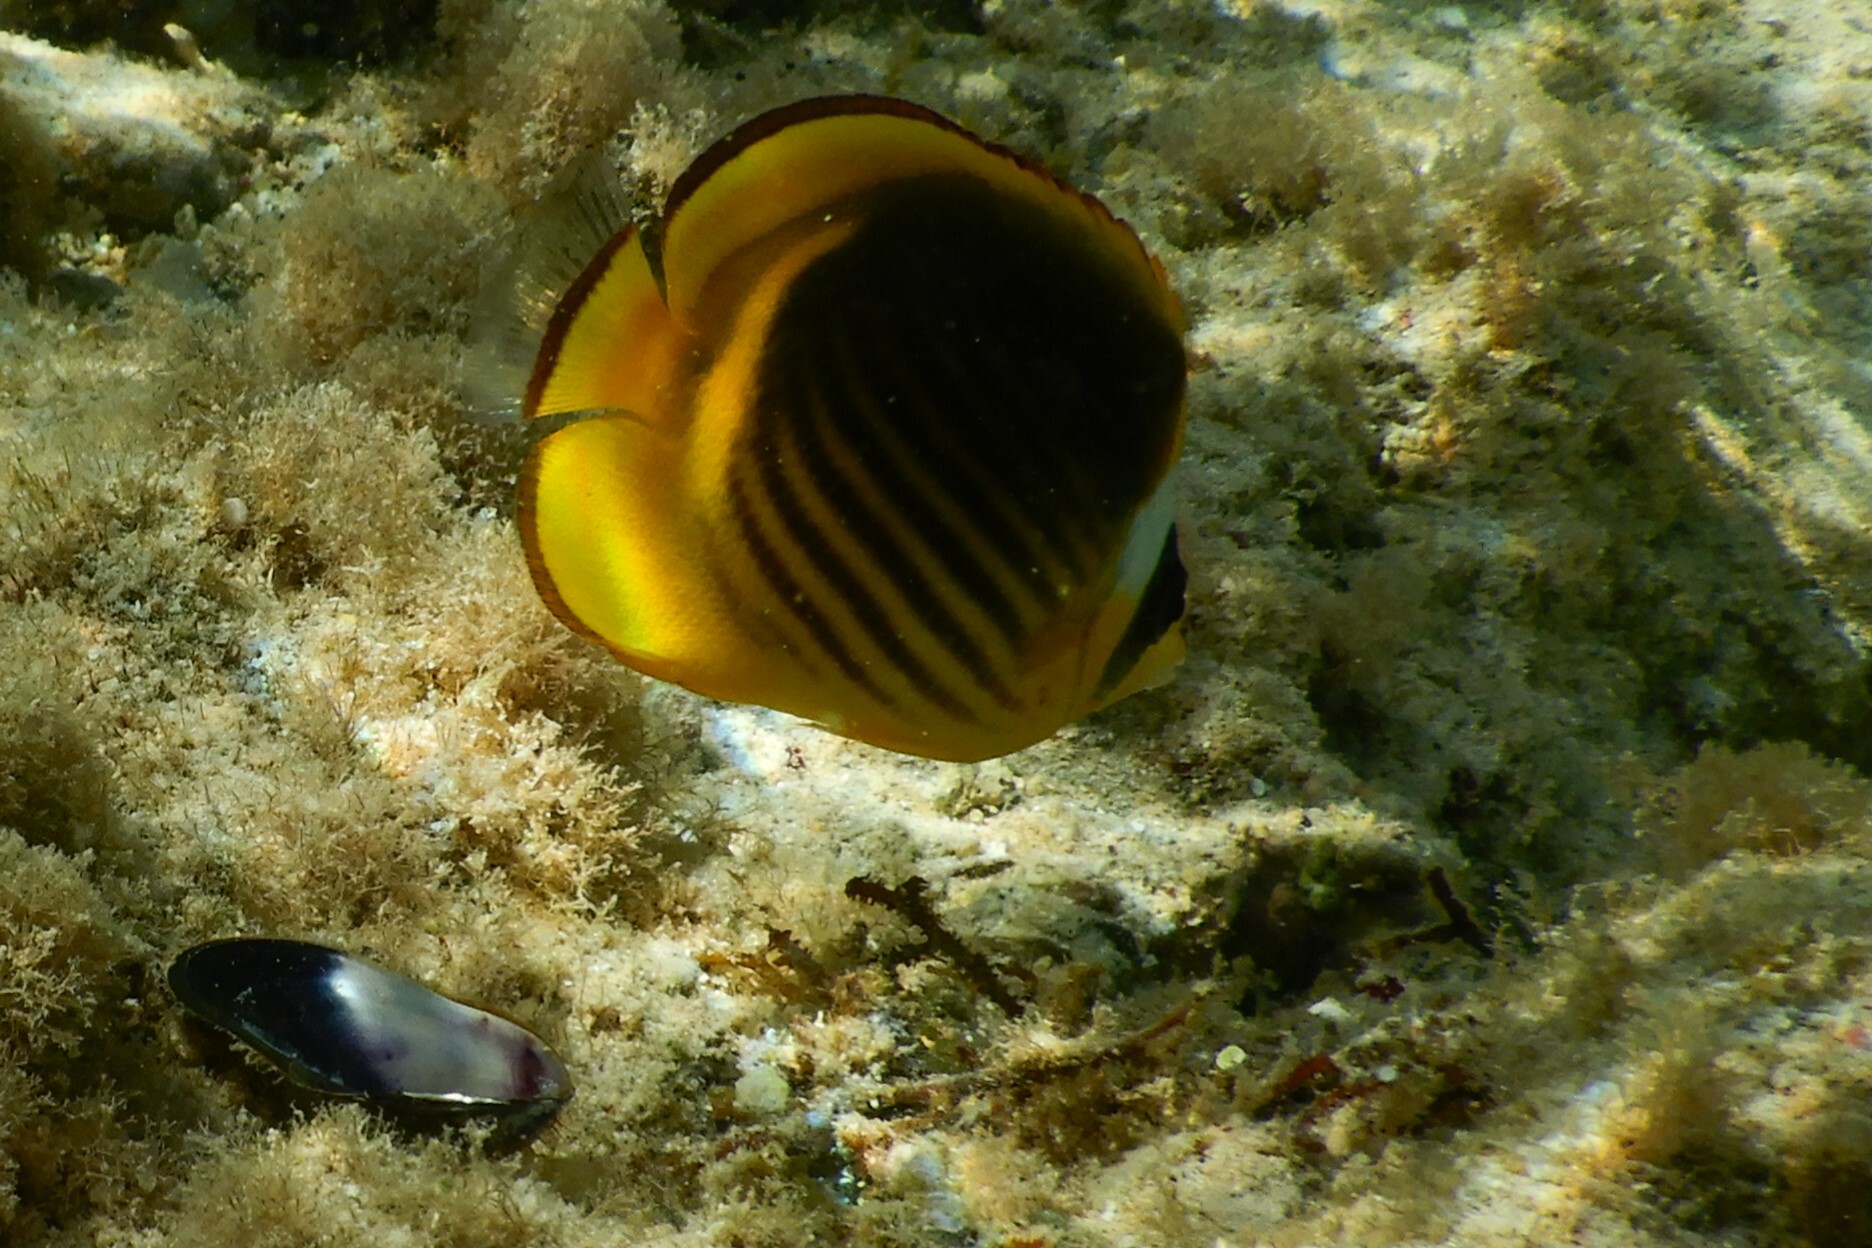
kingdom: Animalia
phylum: Chordata
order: Perciformes
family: Chaetodontidae
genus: Chaetodon
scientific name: Chaetodon fasciatus
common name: Diagonal butterflyfish
